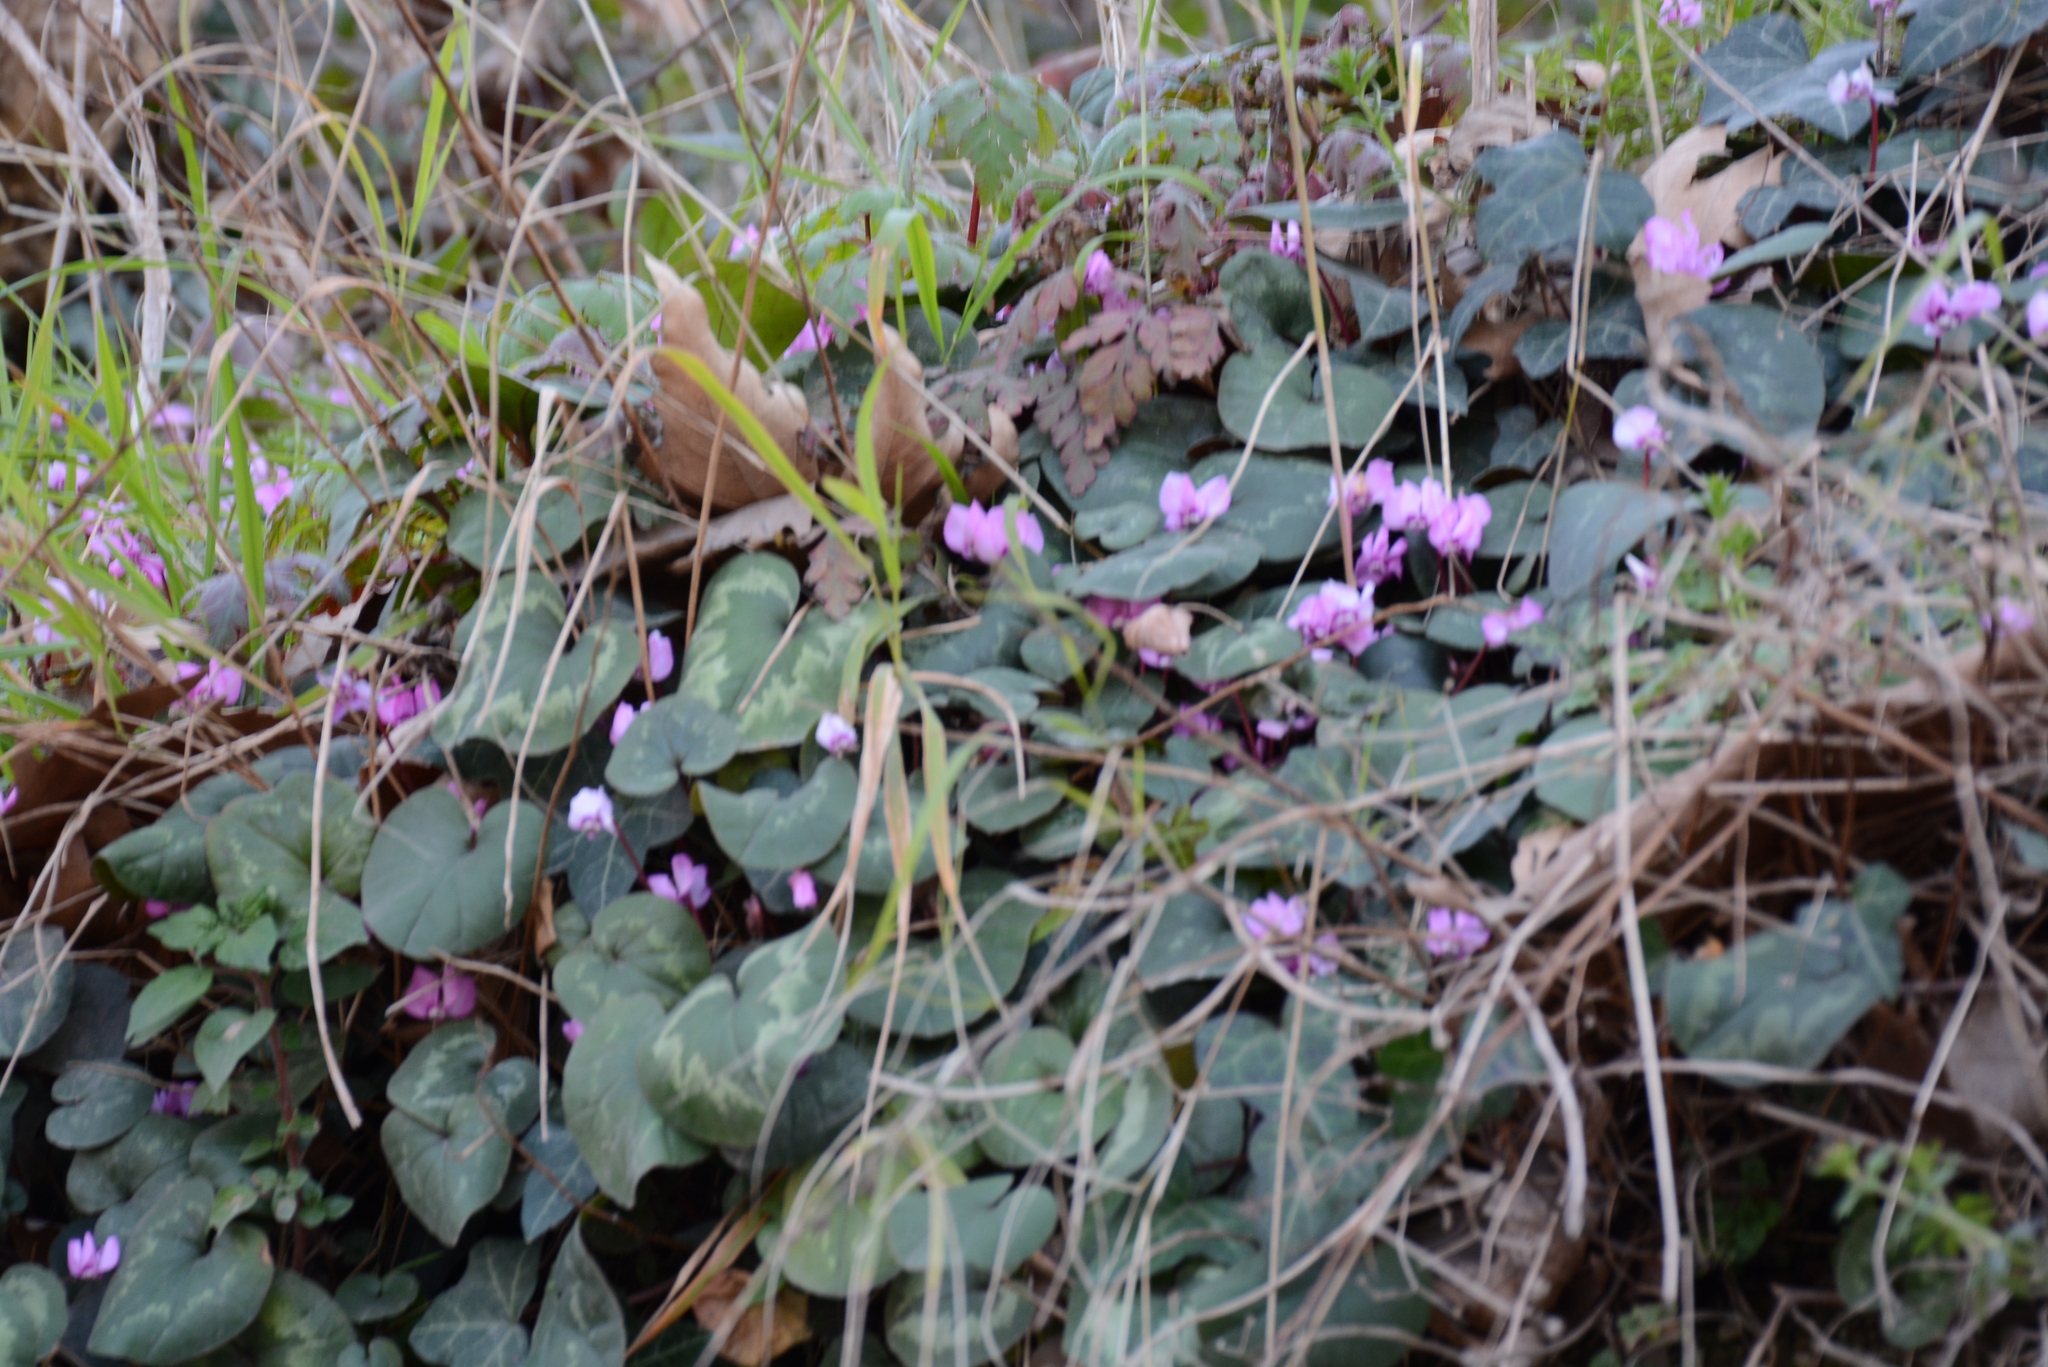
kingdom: Plantae
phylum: Tracheophyta
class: Magnoliopsida
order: Ericales
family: Primulaceae
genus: Cyclamen
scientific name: Cyclamen coum
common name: Eastern sowbread
